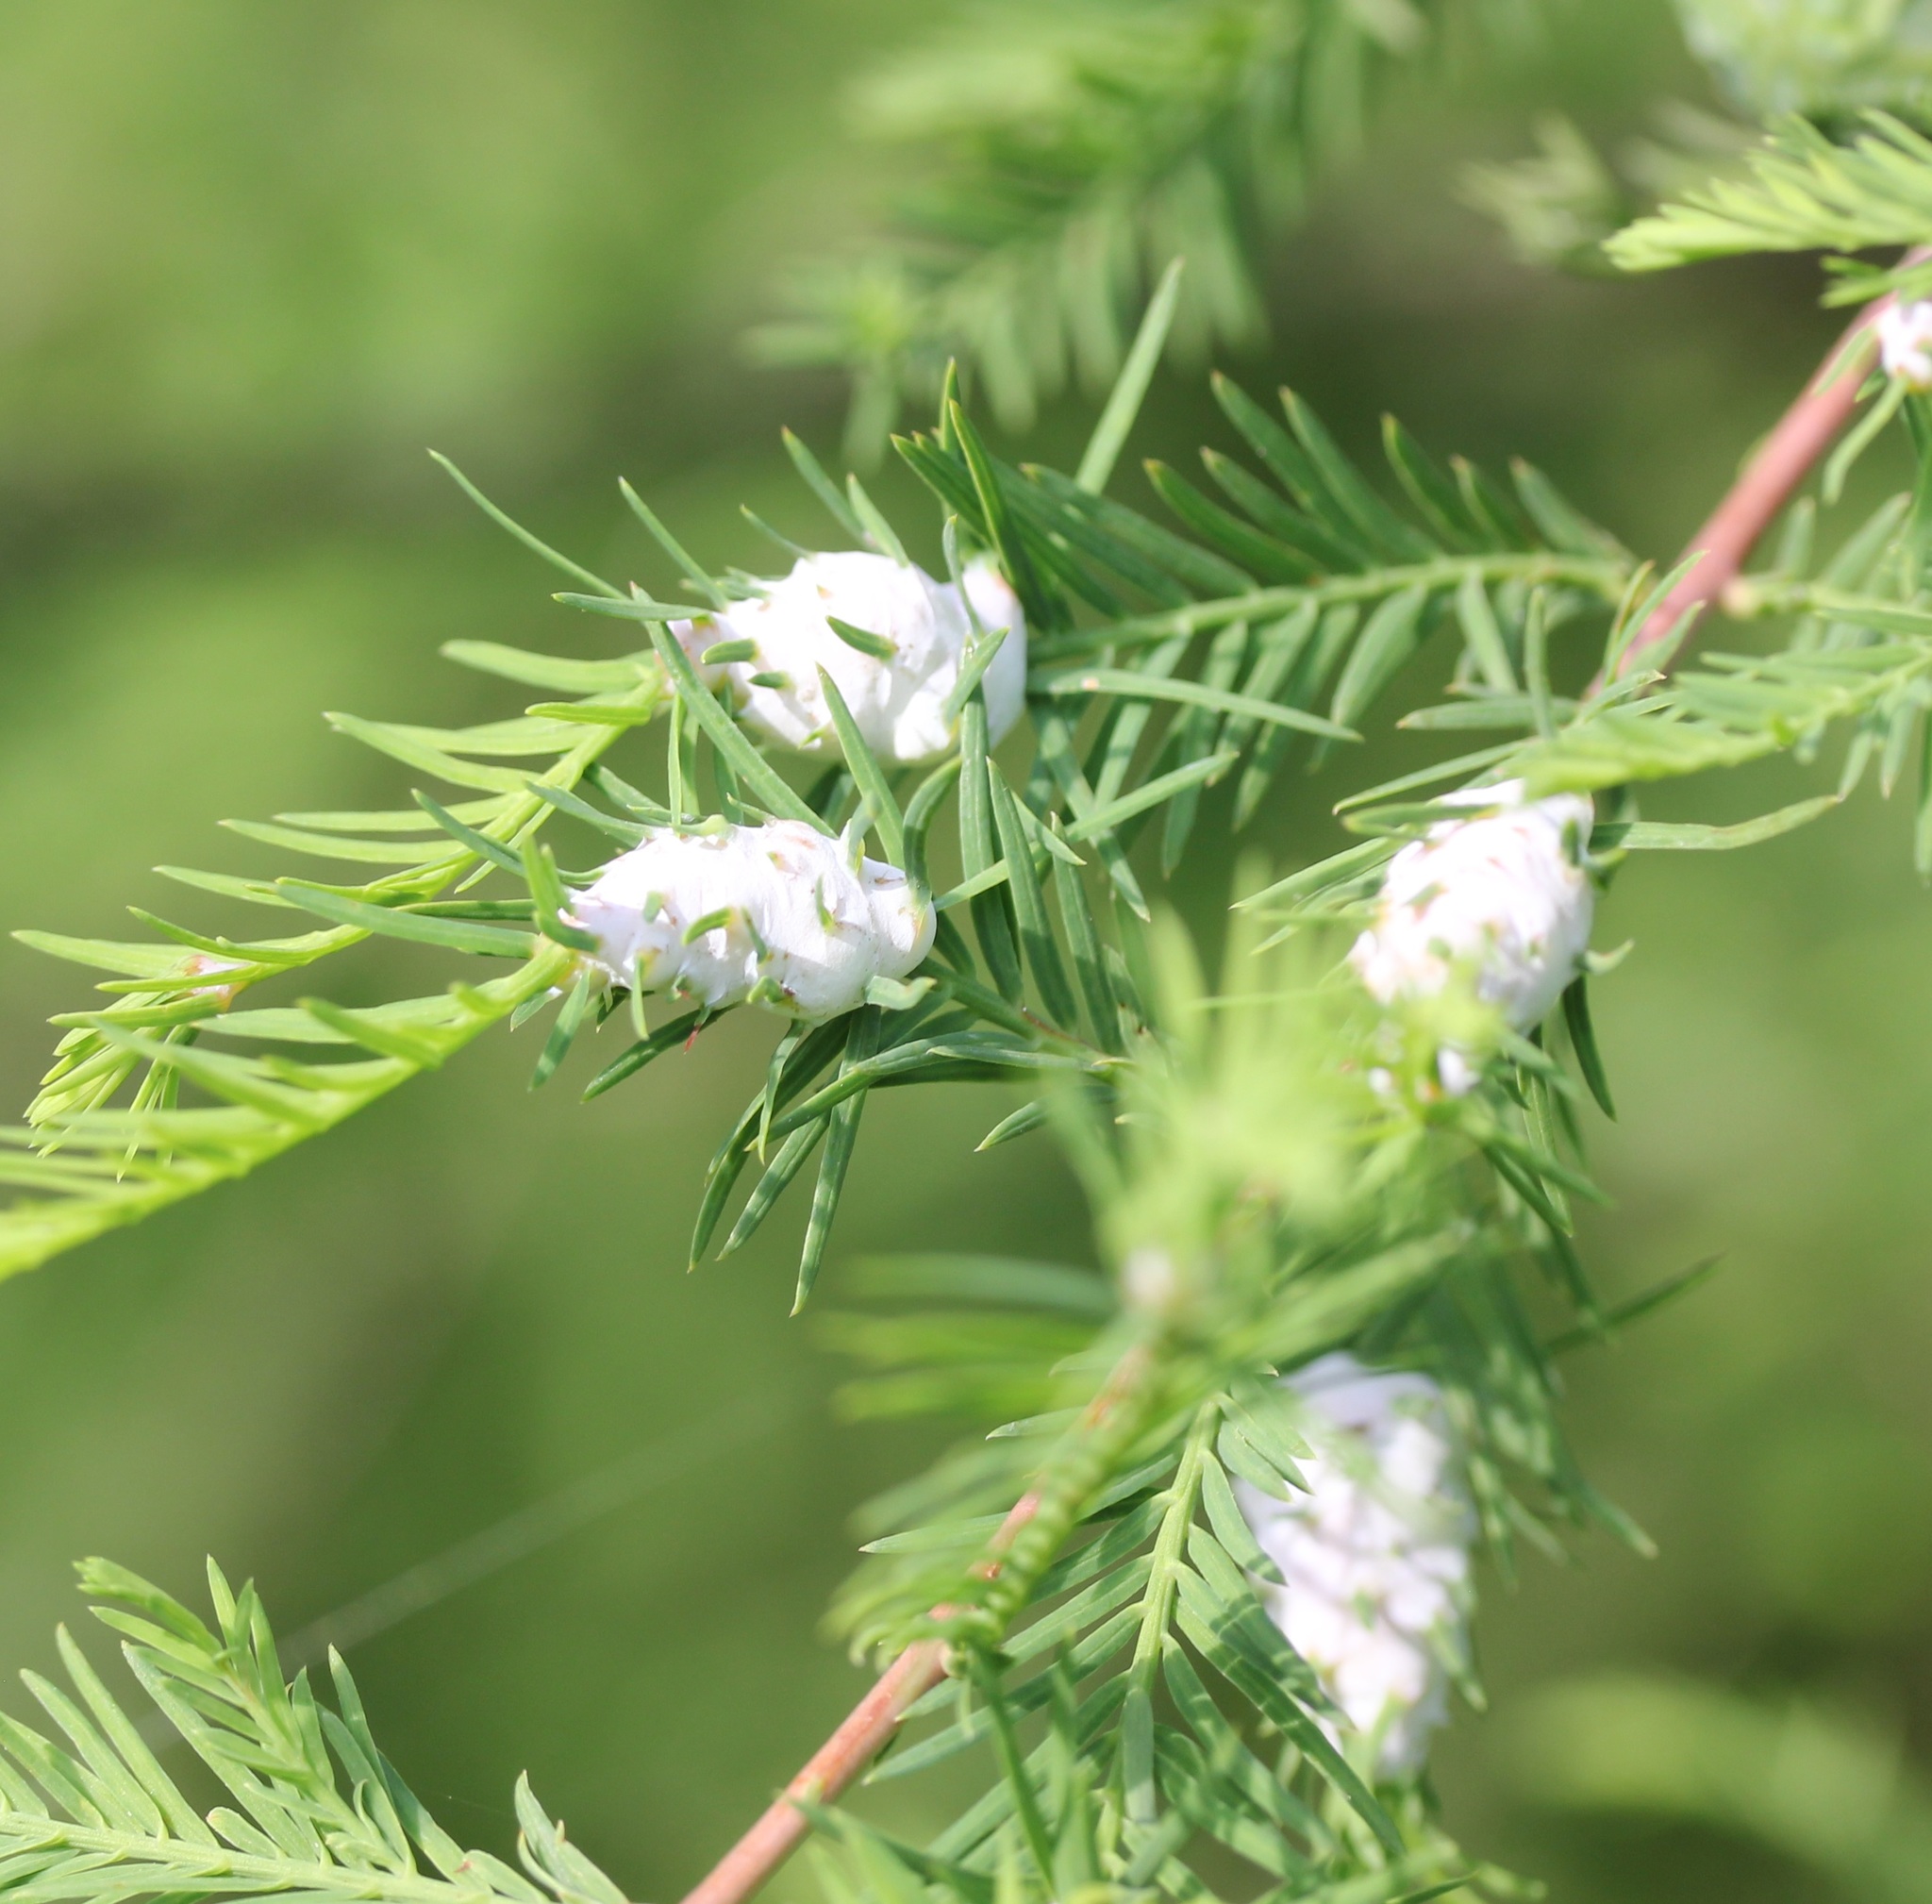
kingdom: Animalia
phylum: Arthropoda
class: Insecta
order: Diptera
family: Cecidomyiidae
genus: Taxodiomyia
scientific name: Taxodiomyia cupressiananassa
